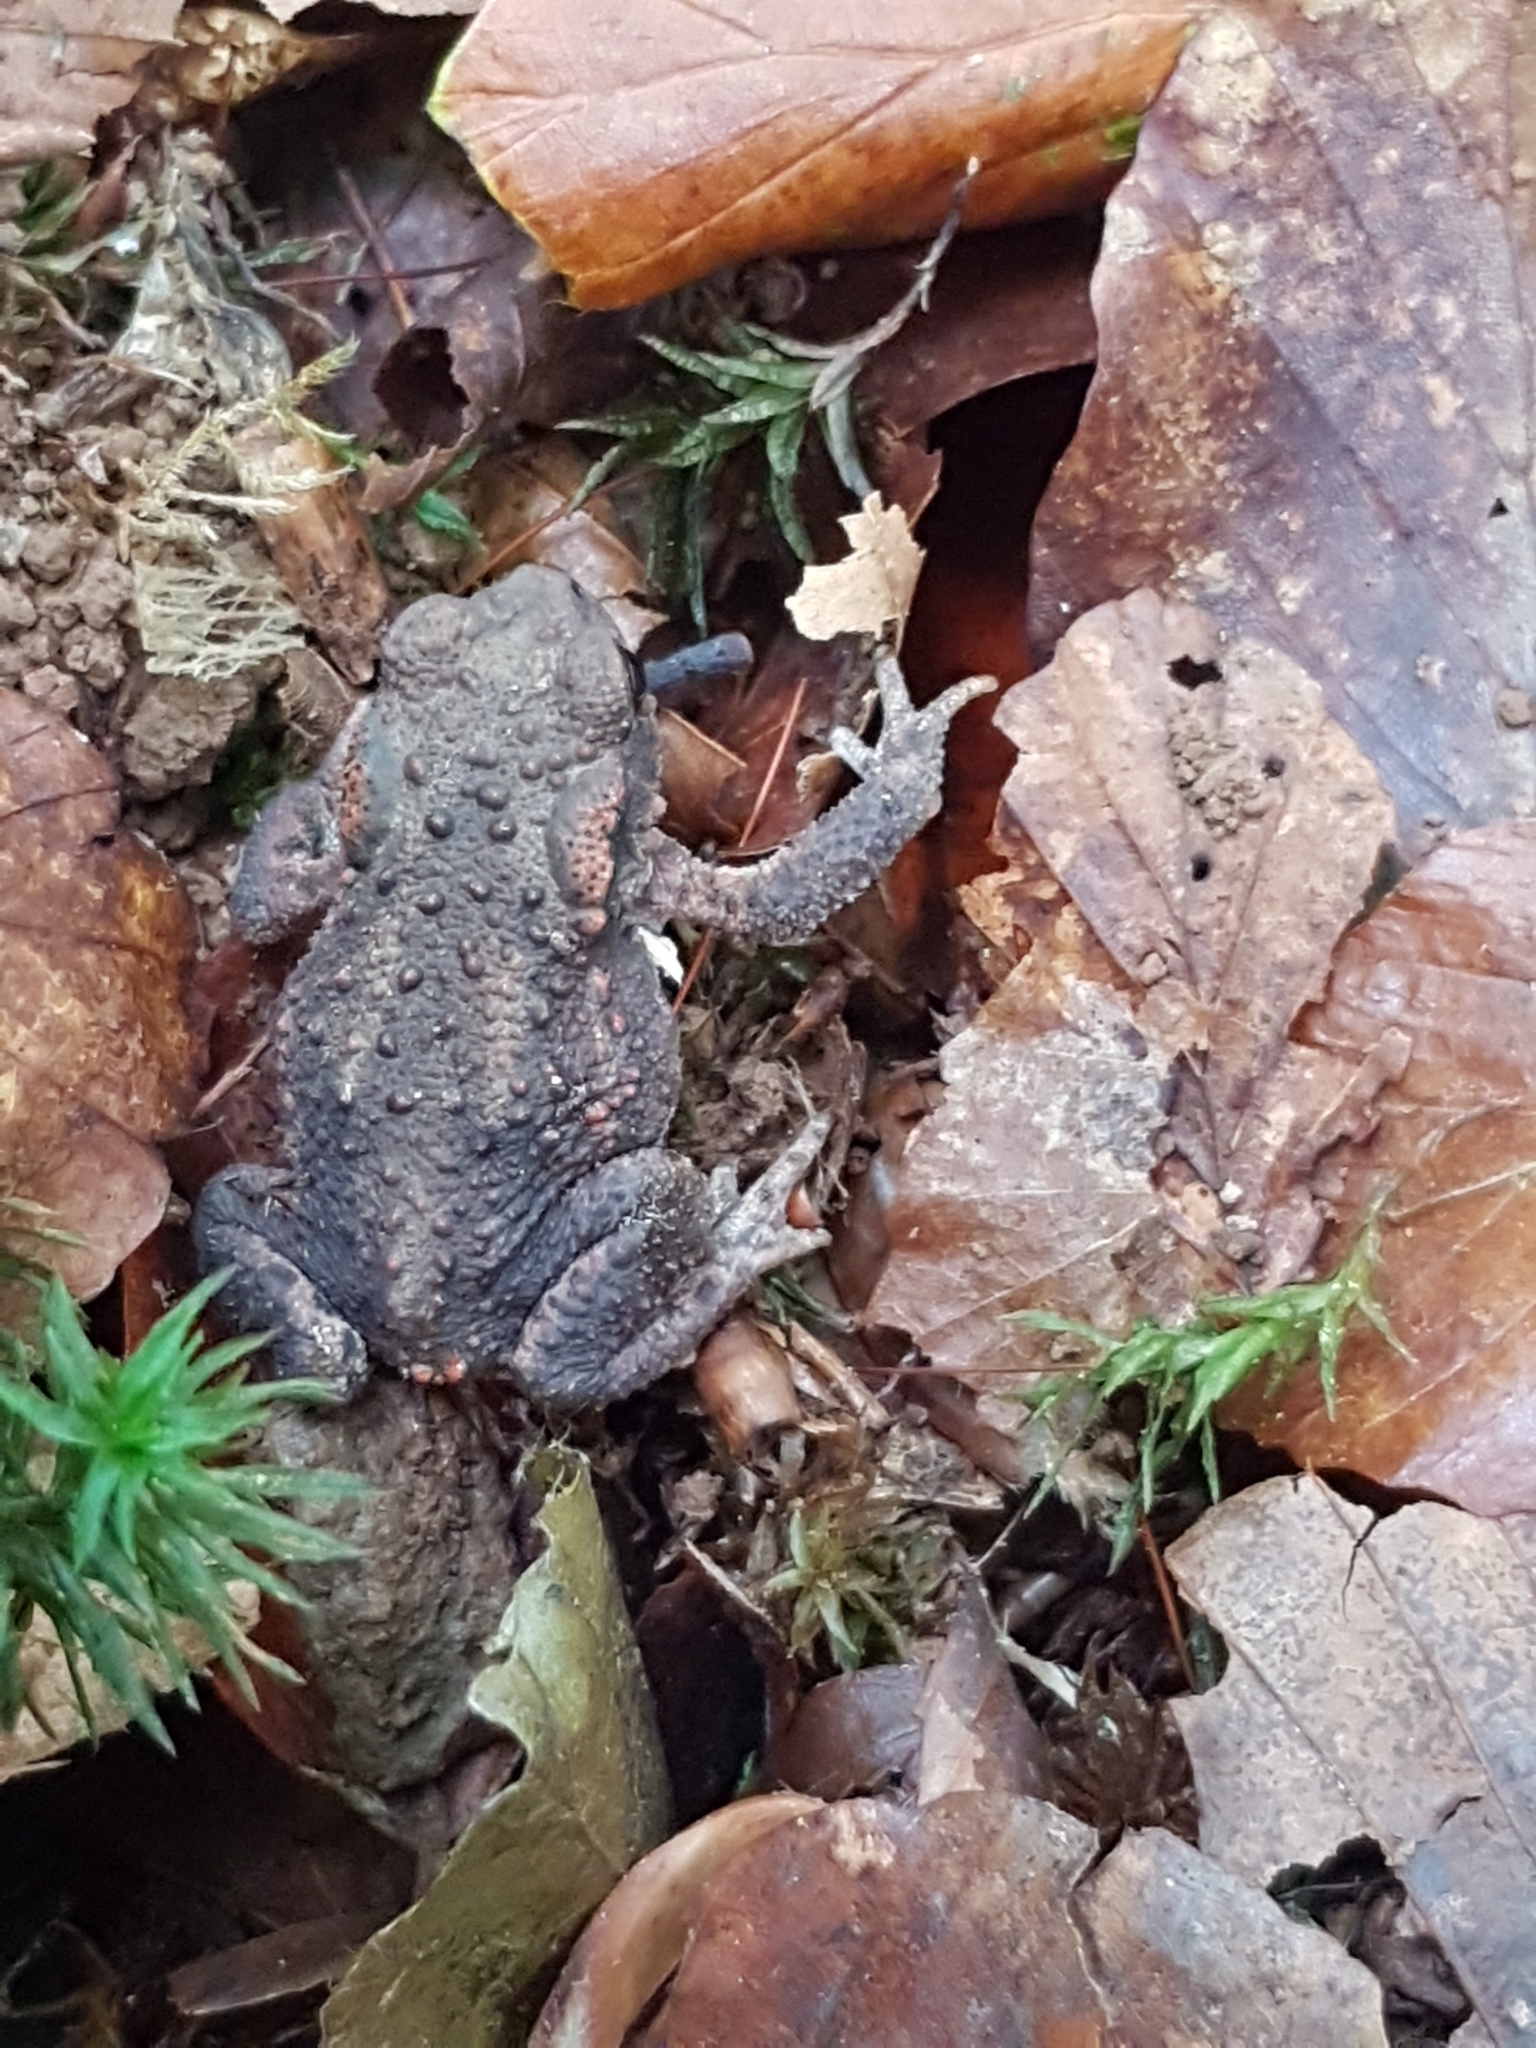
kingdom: Animalia
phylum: Chordata
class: Amphibia
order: Anura
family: Bufonidae
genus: Bufo
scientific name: Bufo bufo
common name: Common toad
